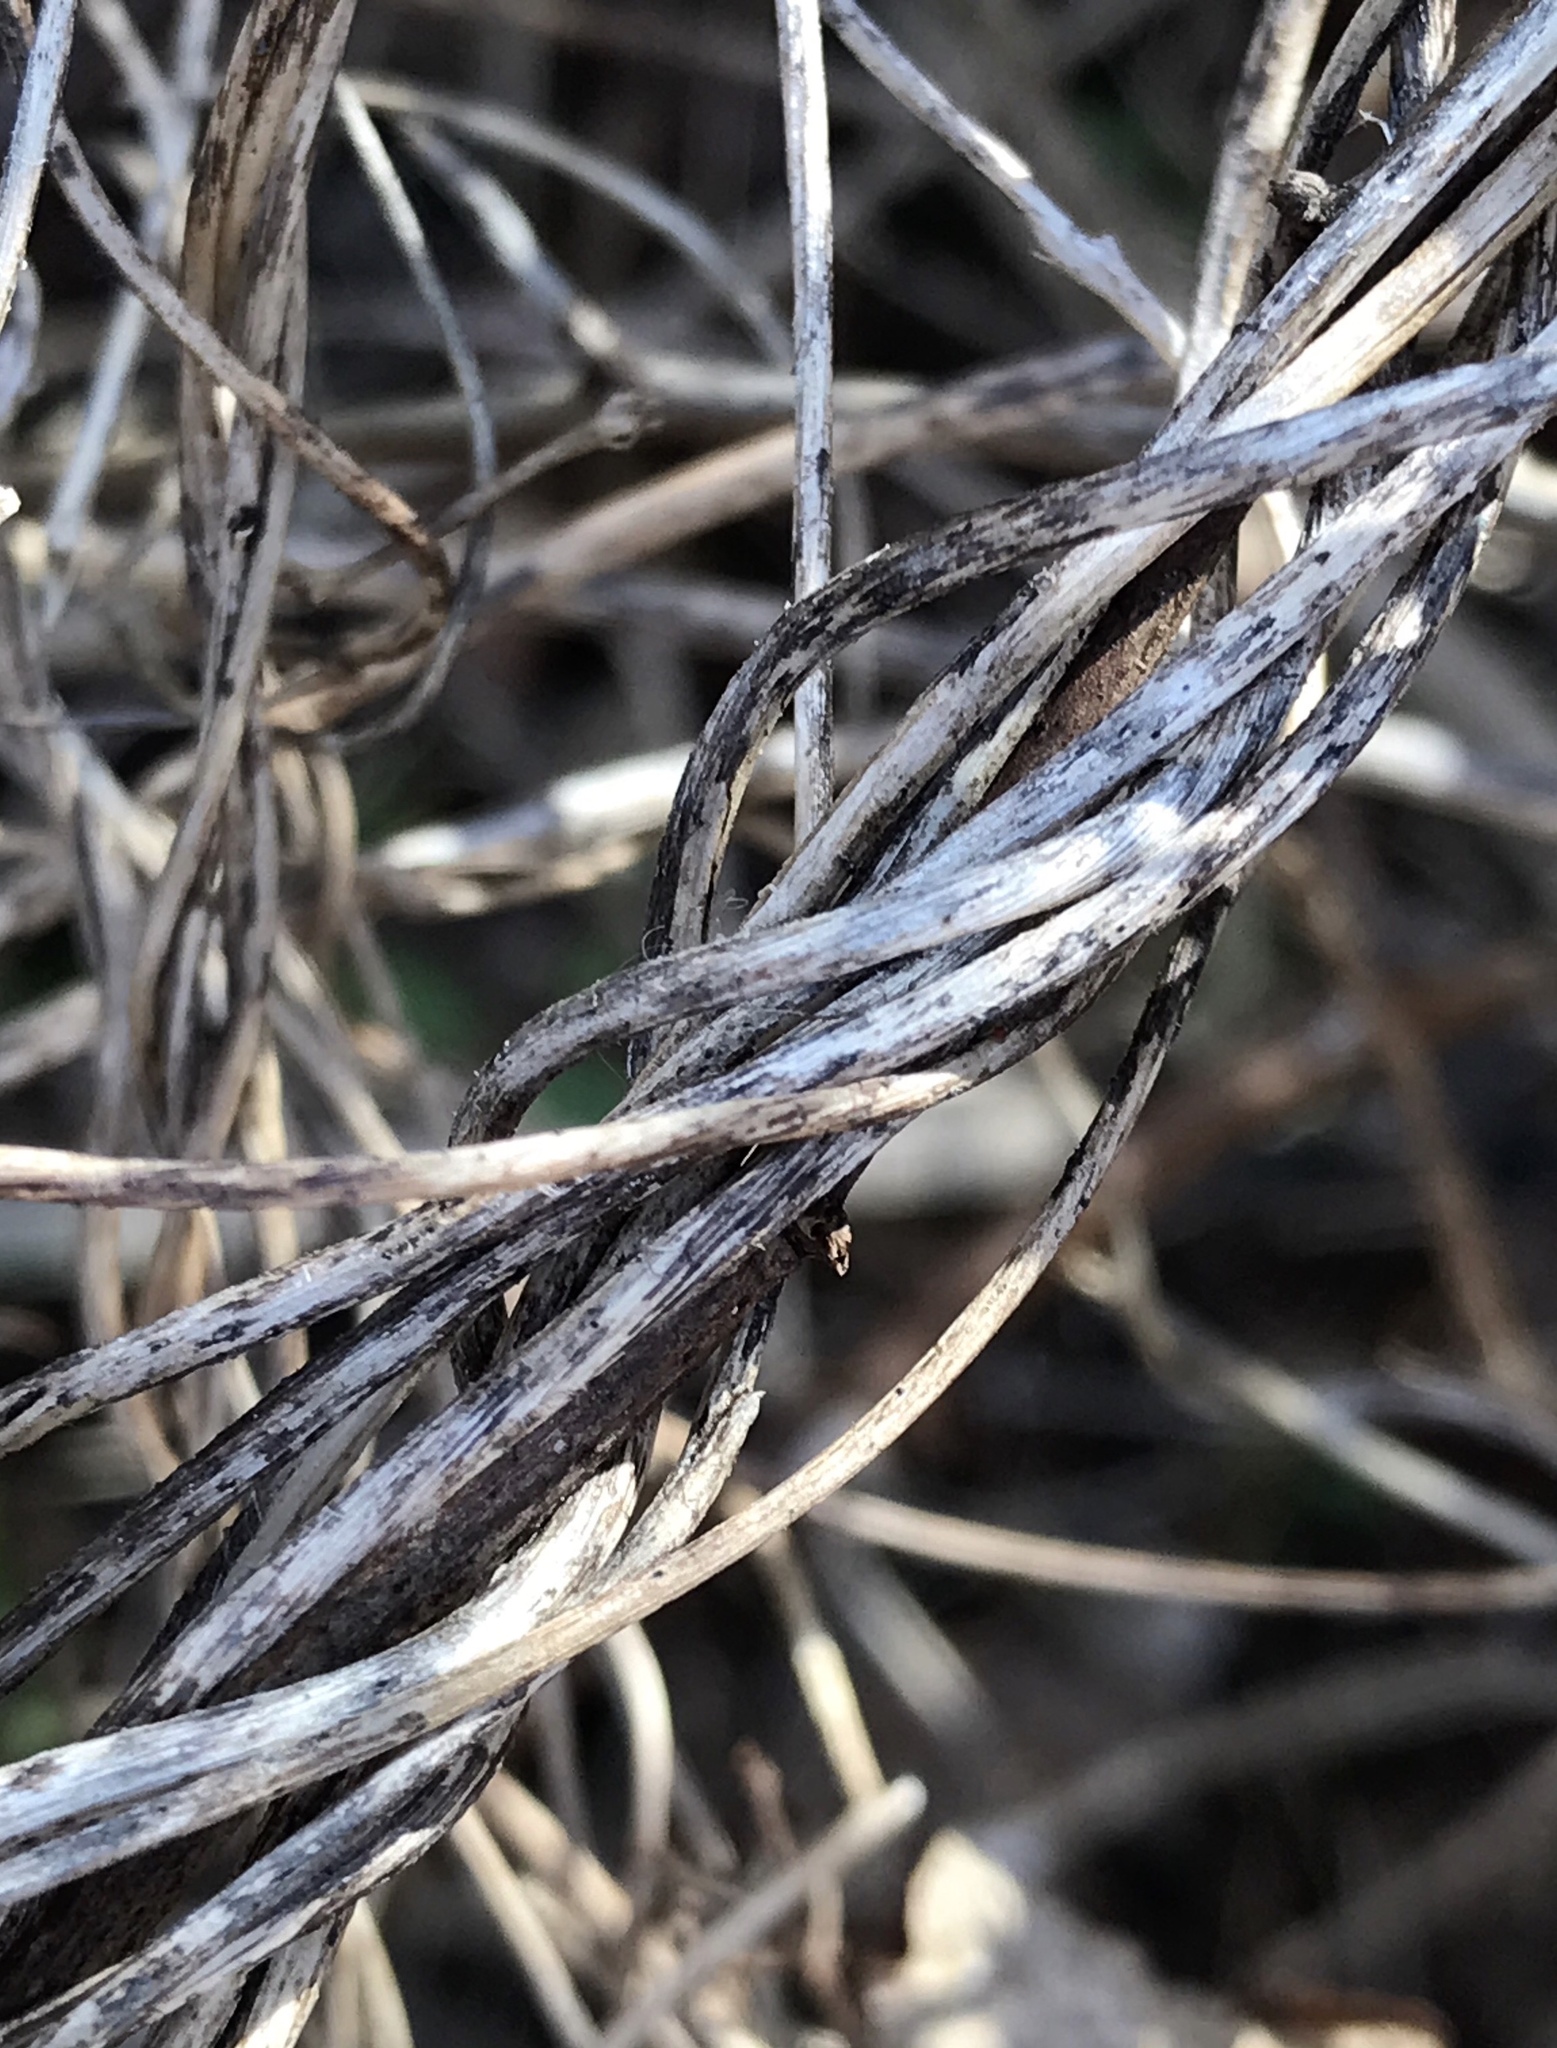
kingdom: Plantae
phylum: Tracheophyta
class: Magnoliopsida
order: Gentianales
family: Apocynaceae
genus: Vincetoxicum
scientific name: Vincetoxicum nigrum
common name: Black swallow-wort
